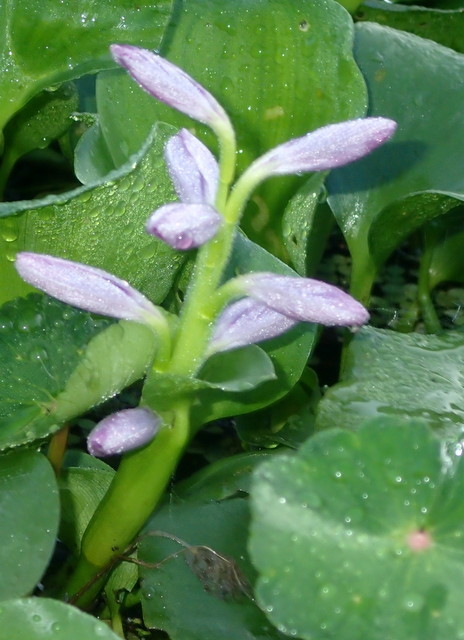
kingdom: Plantae
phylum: Tracheophyta
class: Liliopsida
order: Commelinales
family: Pontederiaceae
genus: Pontederia
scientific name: Pontederia crassipes
